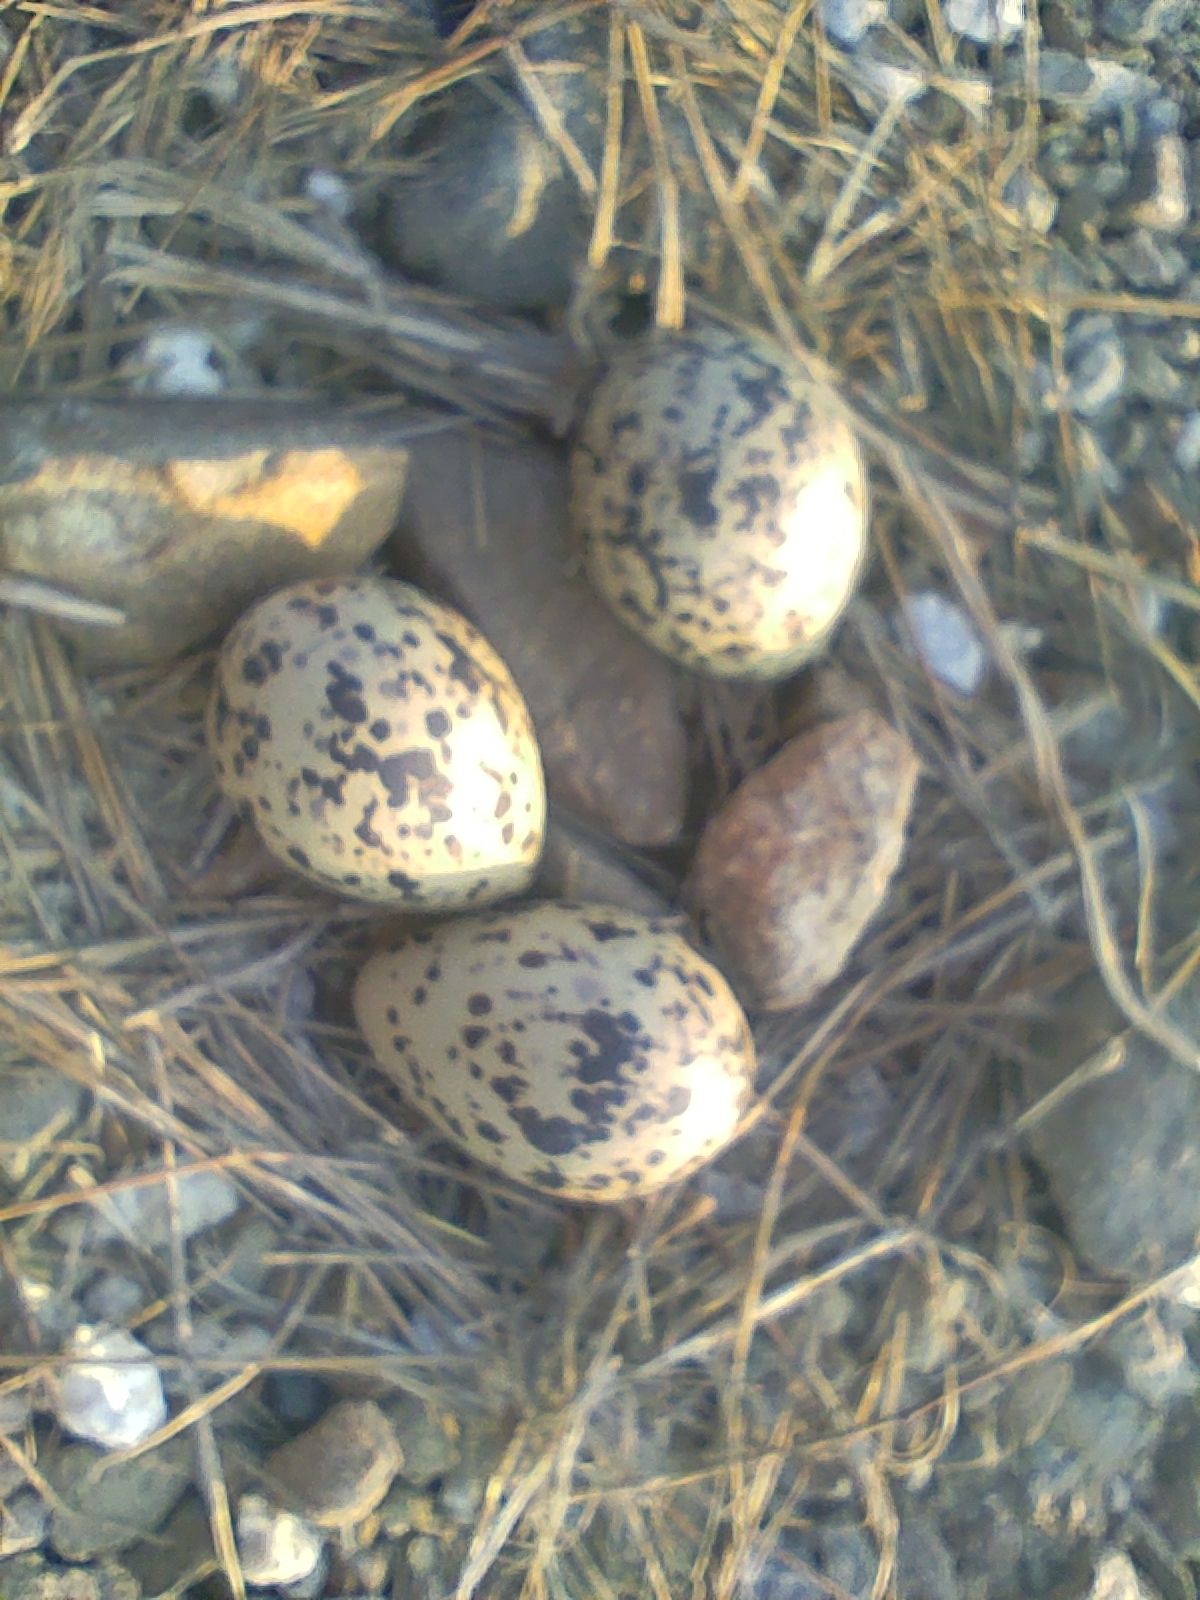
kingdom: Animalia
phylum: Chordata
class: Aves
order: Charadriiformes
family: Recurvirostridae
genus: Himantopus
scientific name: Himantopus himantopus
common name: Black-winged stilt
